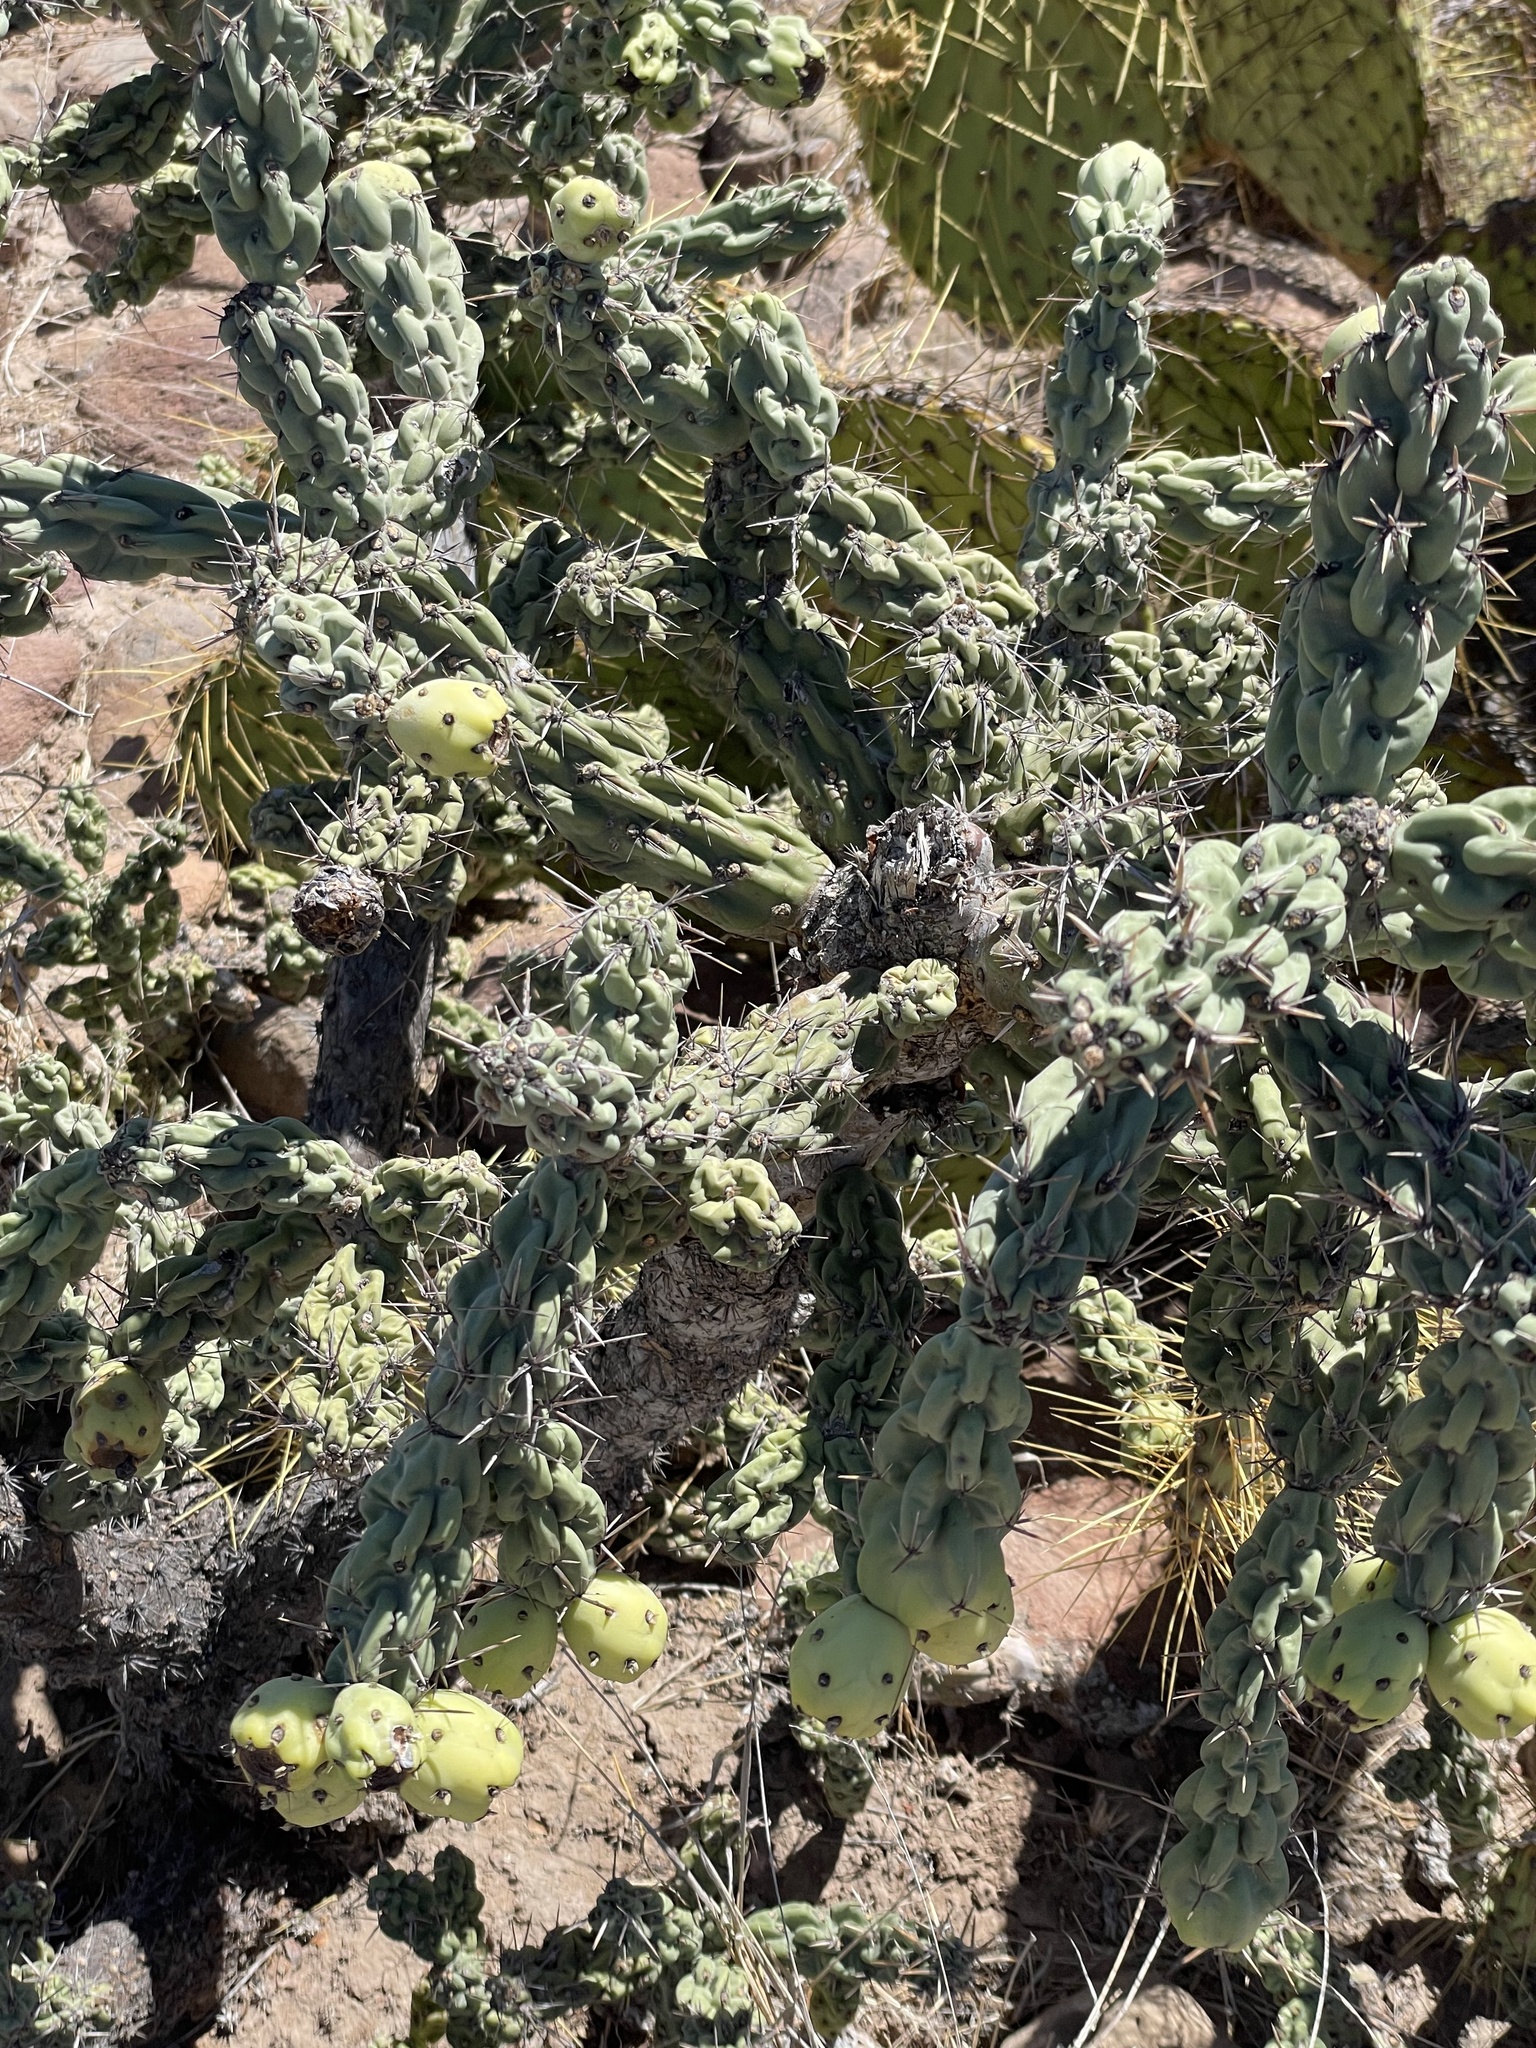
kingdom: Plantae
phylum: Tracheophyta
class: Magnoliopsida
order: Caryophyllales
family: Cactaceae
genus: Cylindropuntia
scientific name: Cylindropuntia cholla
